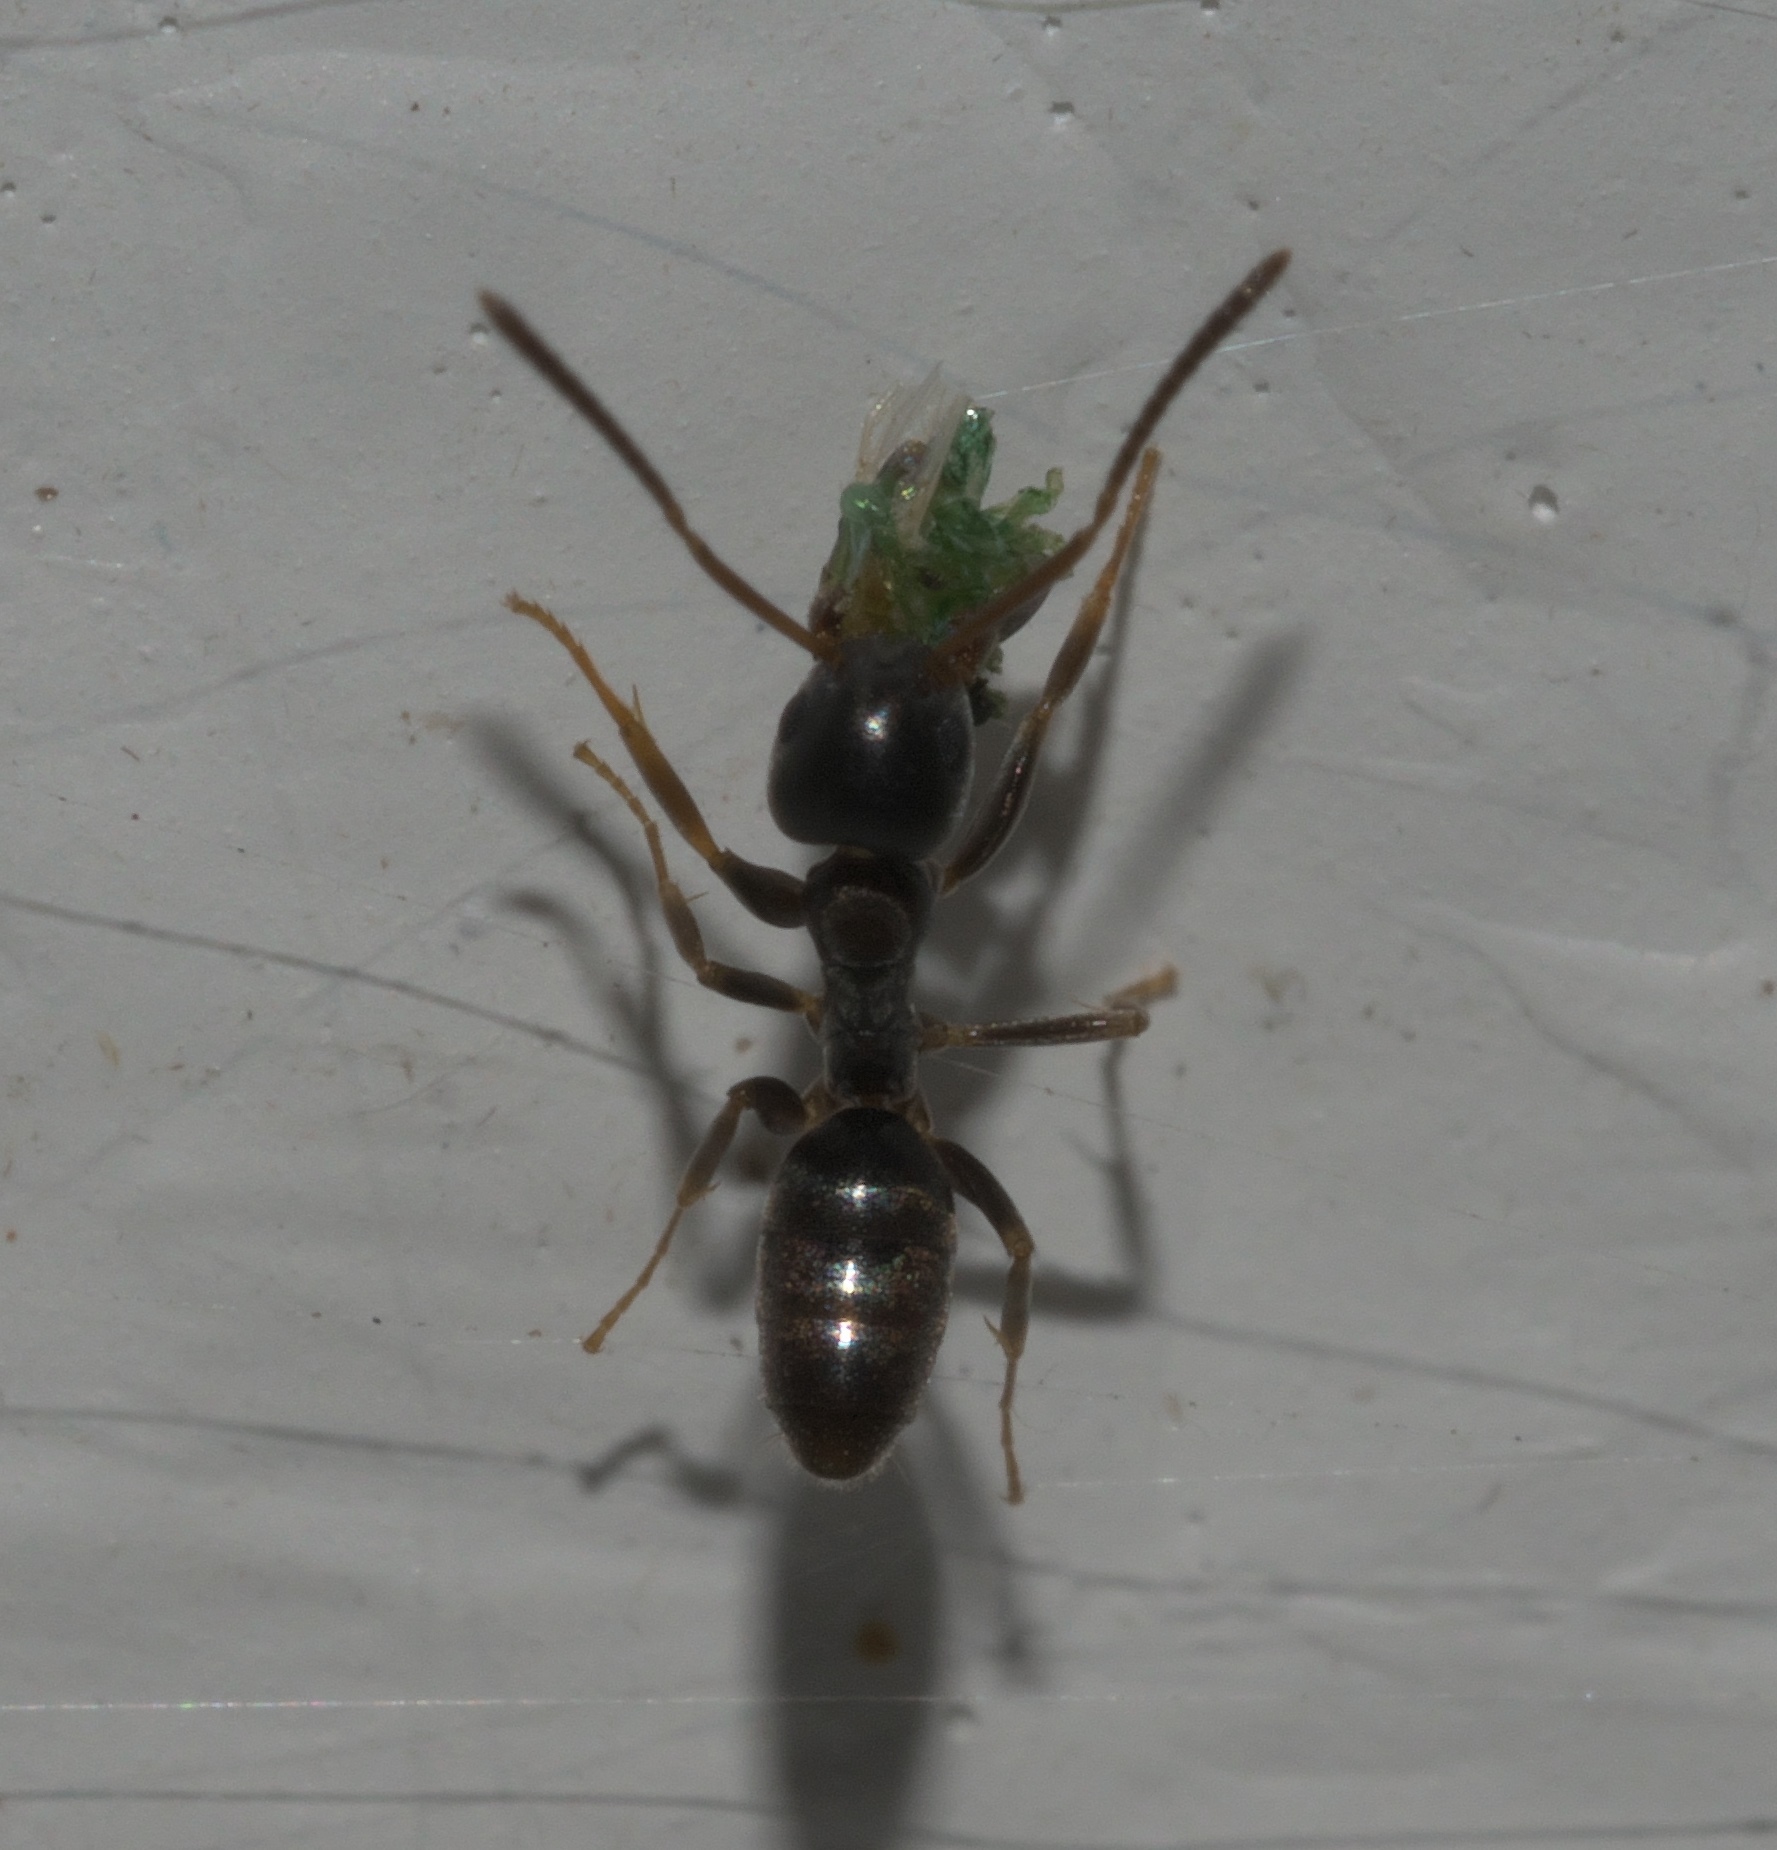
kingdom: Animalia
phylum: Arthropoda
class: Insecta
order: Hymenoptera
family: Formicidae
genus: Tapinoma
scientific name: Tapinoma sessile
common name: Odorous house ant
